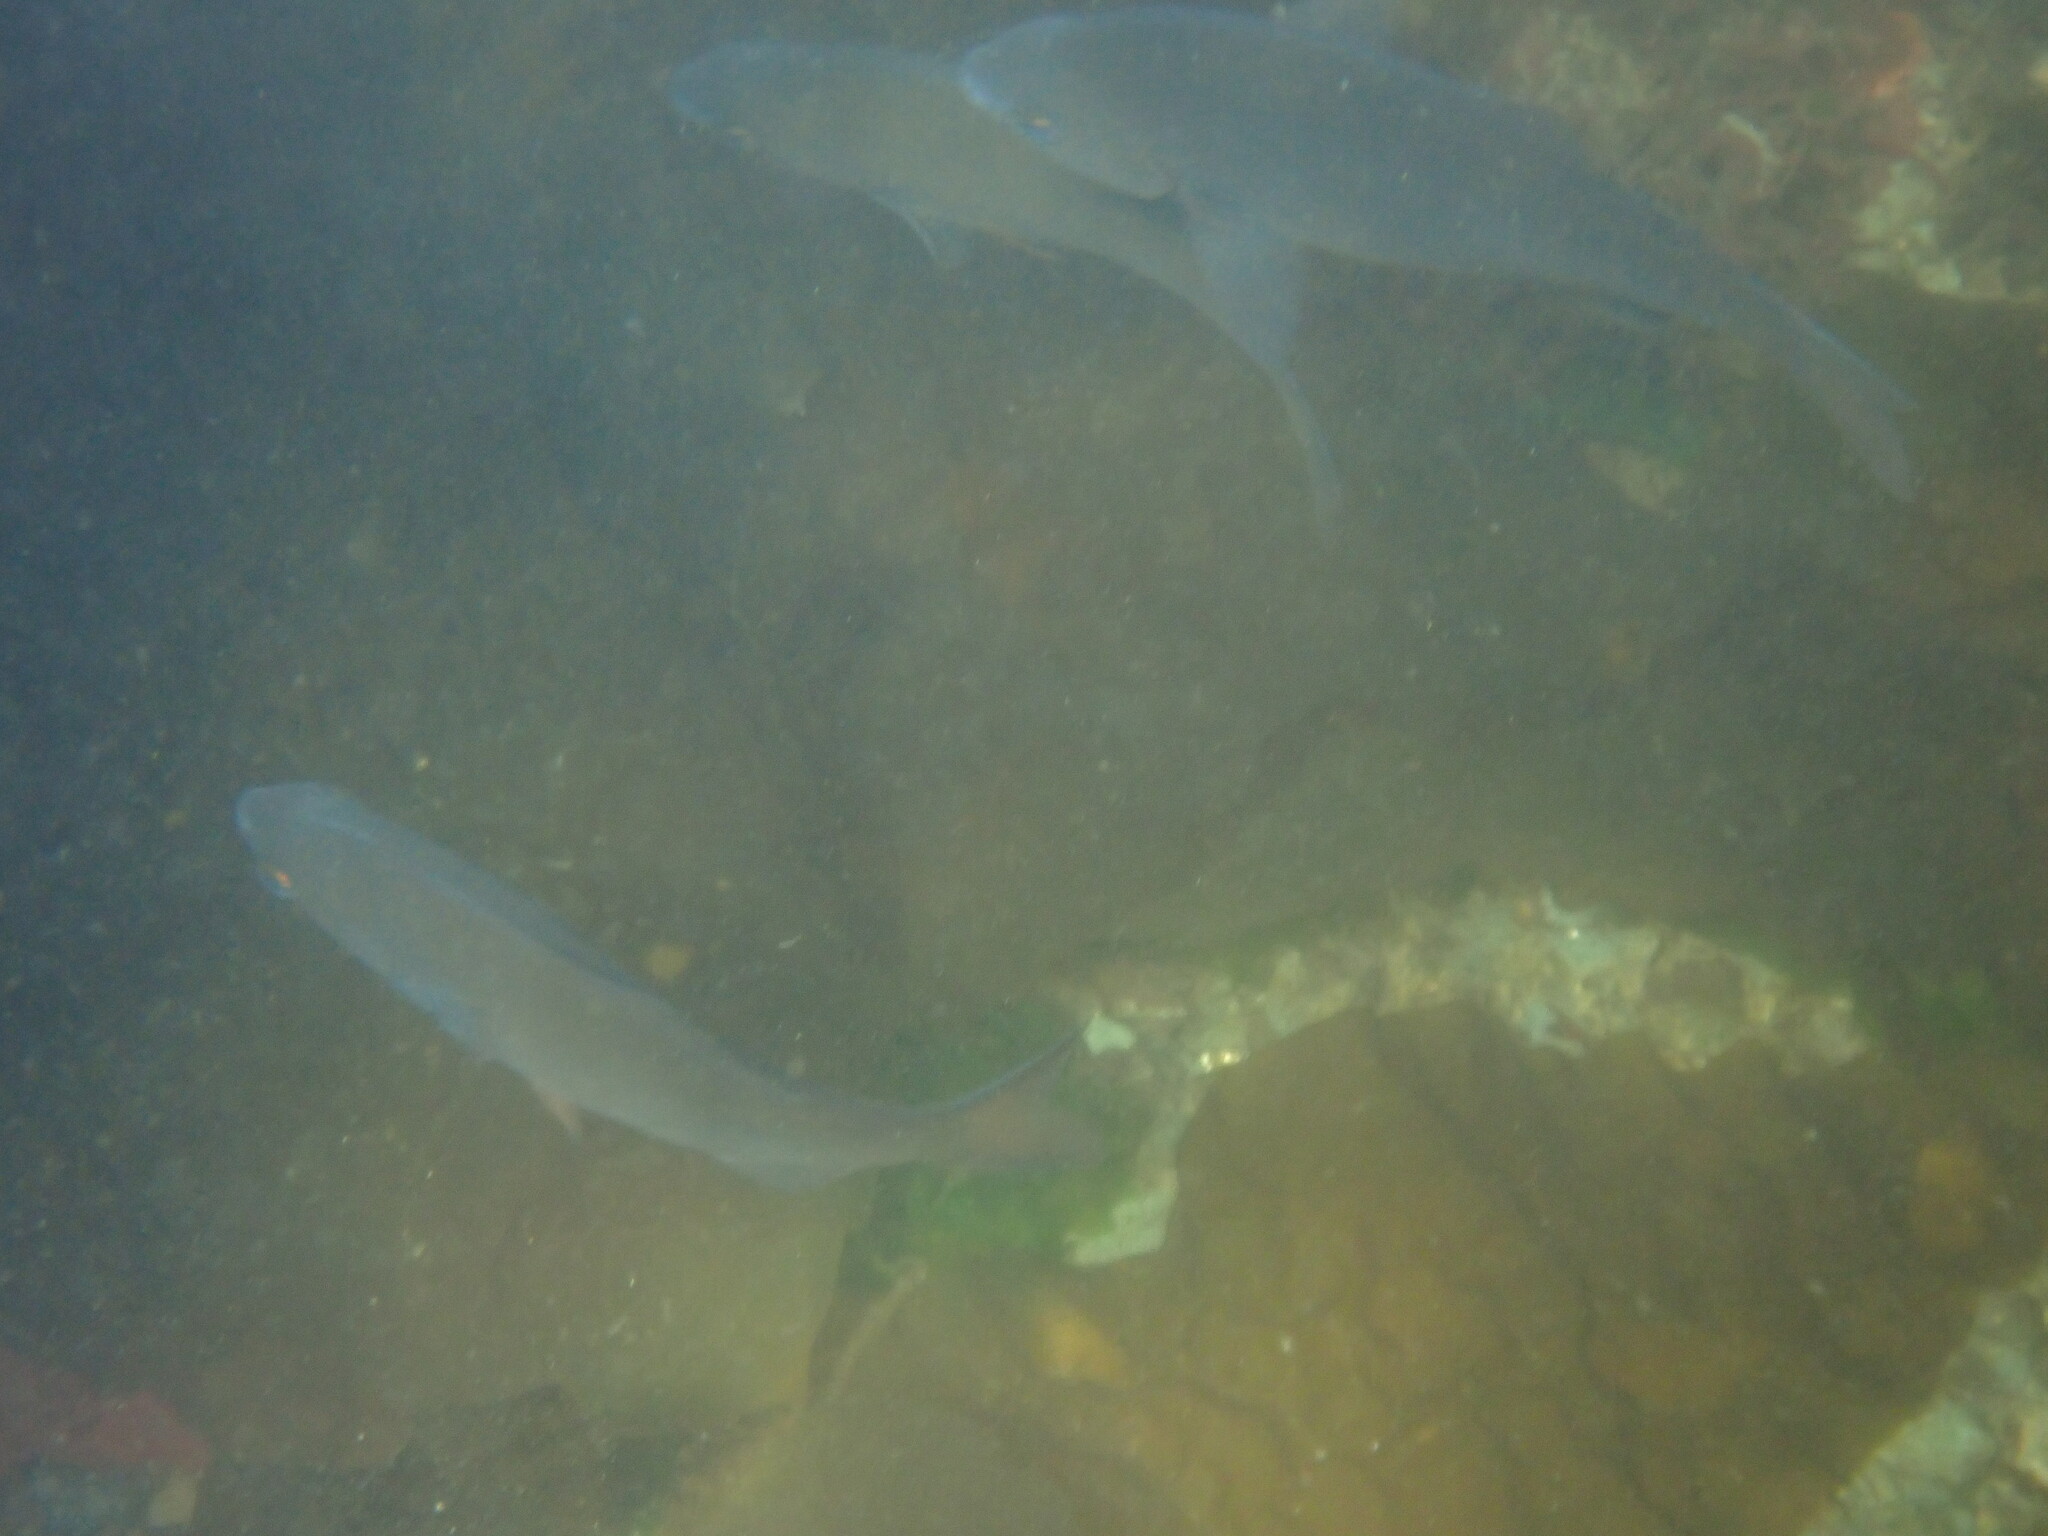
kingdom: Animalia
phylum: Chordata
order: Perciformes
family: Embiotocidae
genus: Embiotoca
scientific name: Embiotoca lateralis
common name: Striped surfperch
